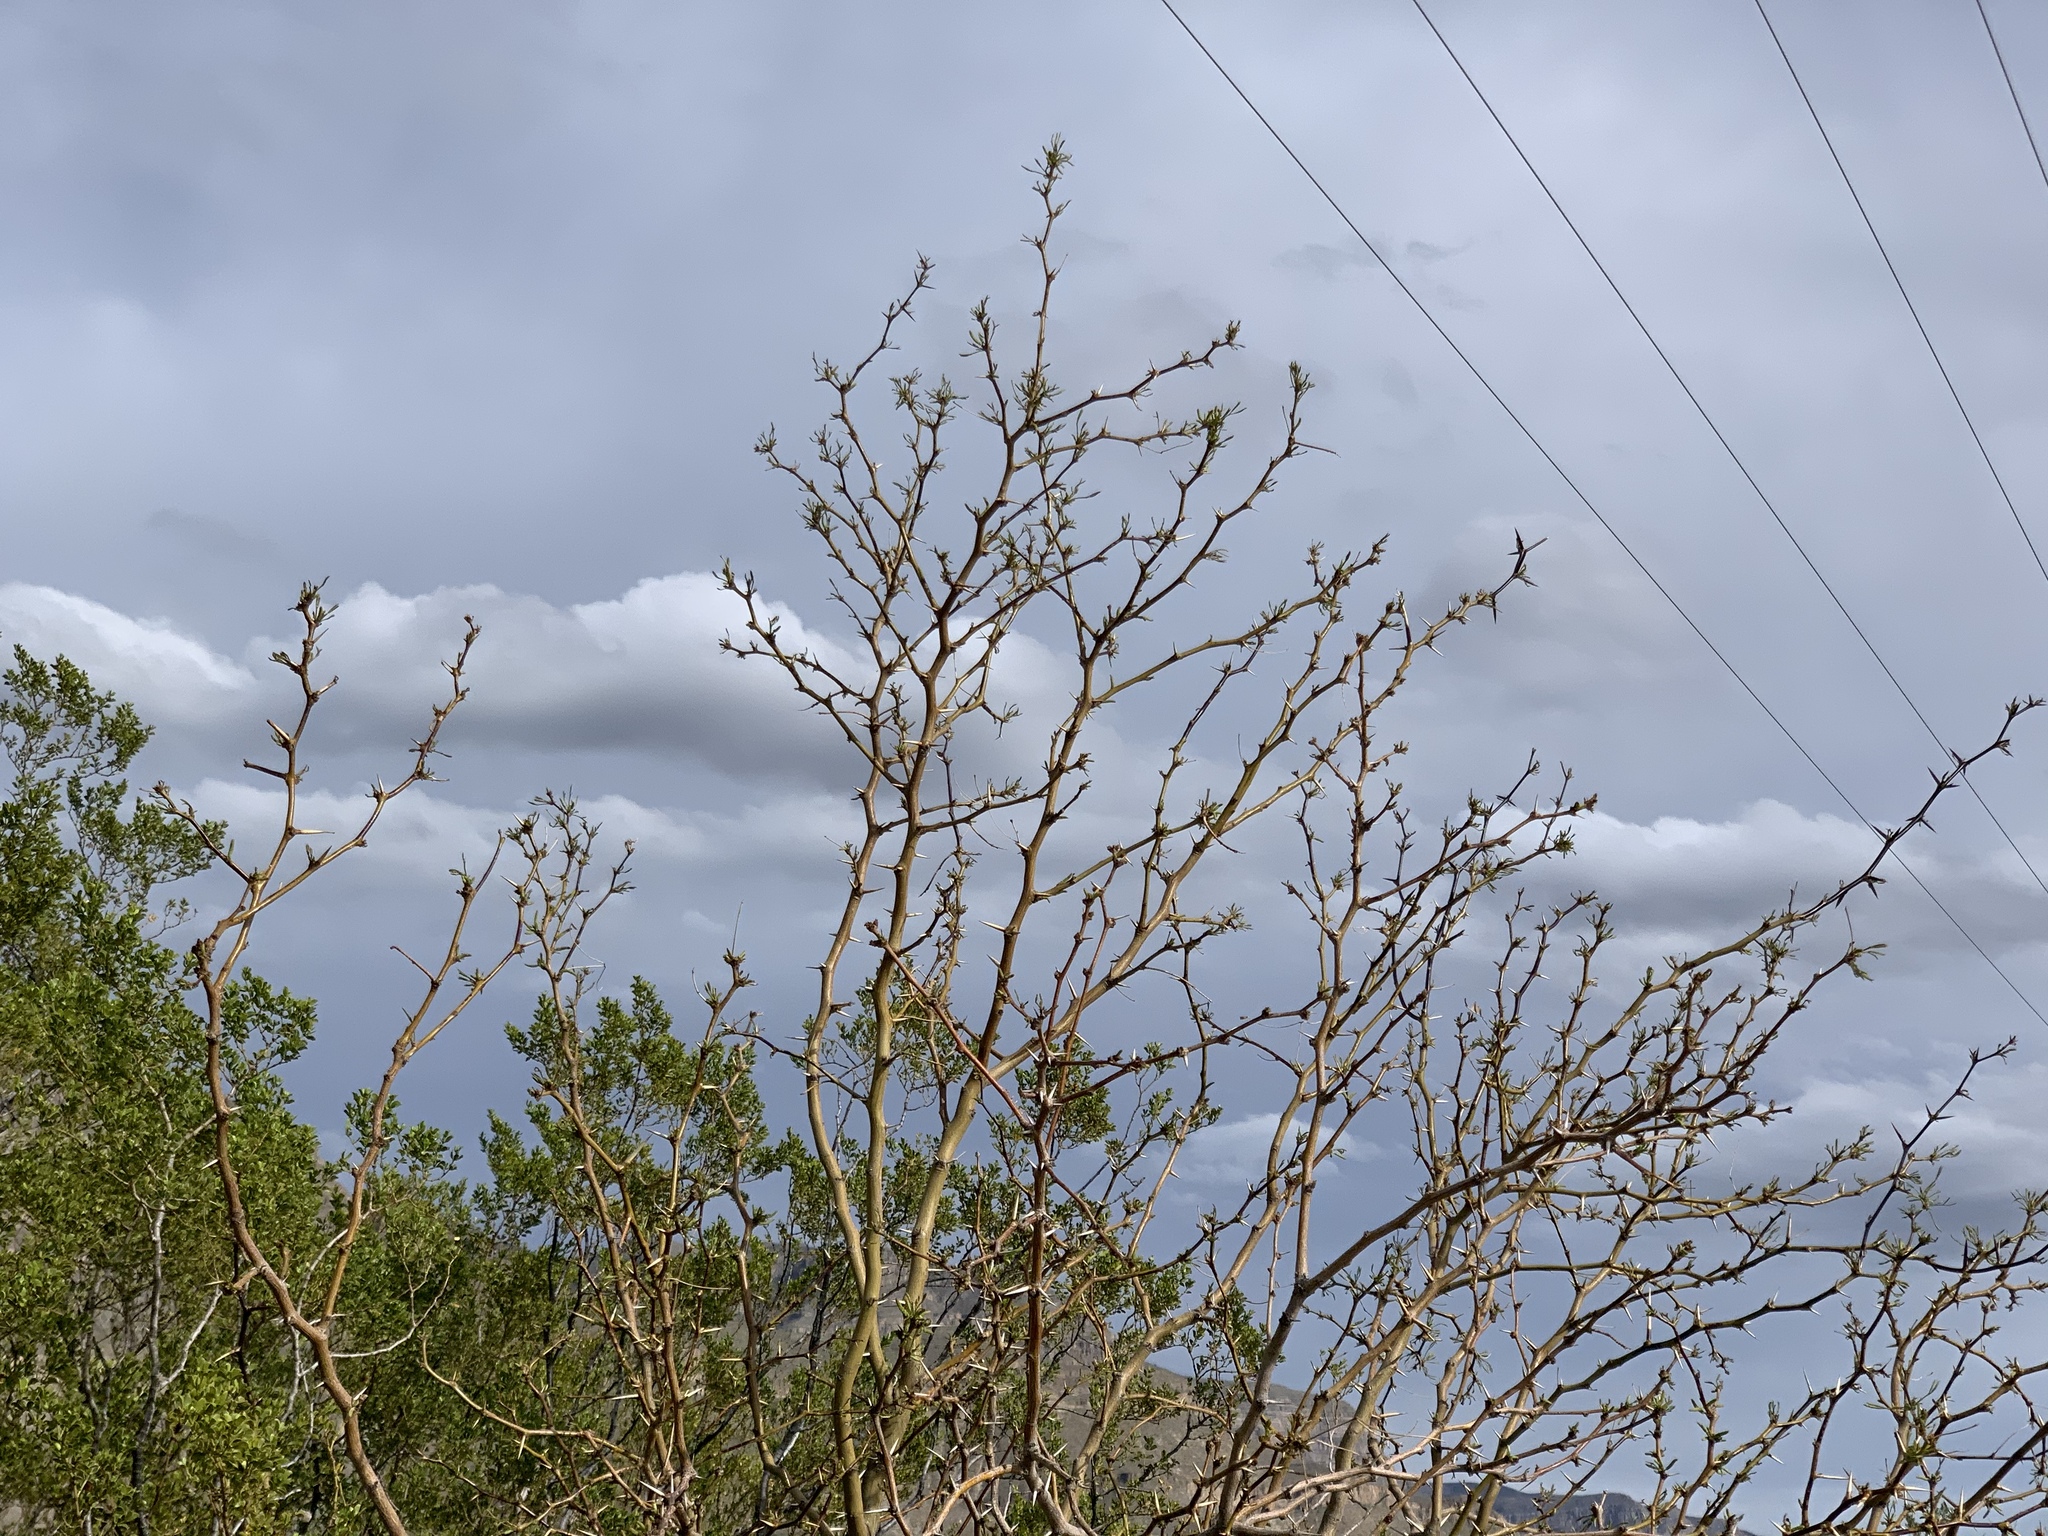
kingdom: Plantae
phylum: Tracheophyta
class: Magnoliopsida
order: Fabales
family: Fabaceae
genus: Prosopis
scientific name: Prosopis glandulosa
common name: Honey mesquite
